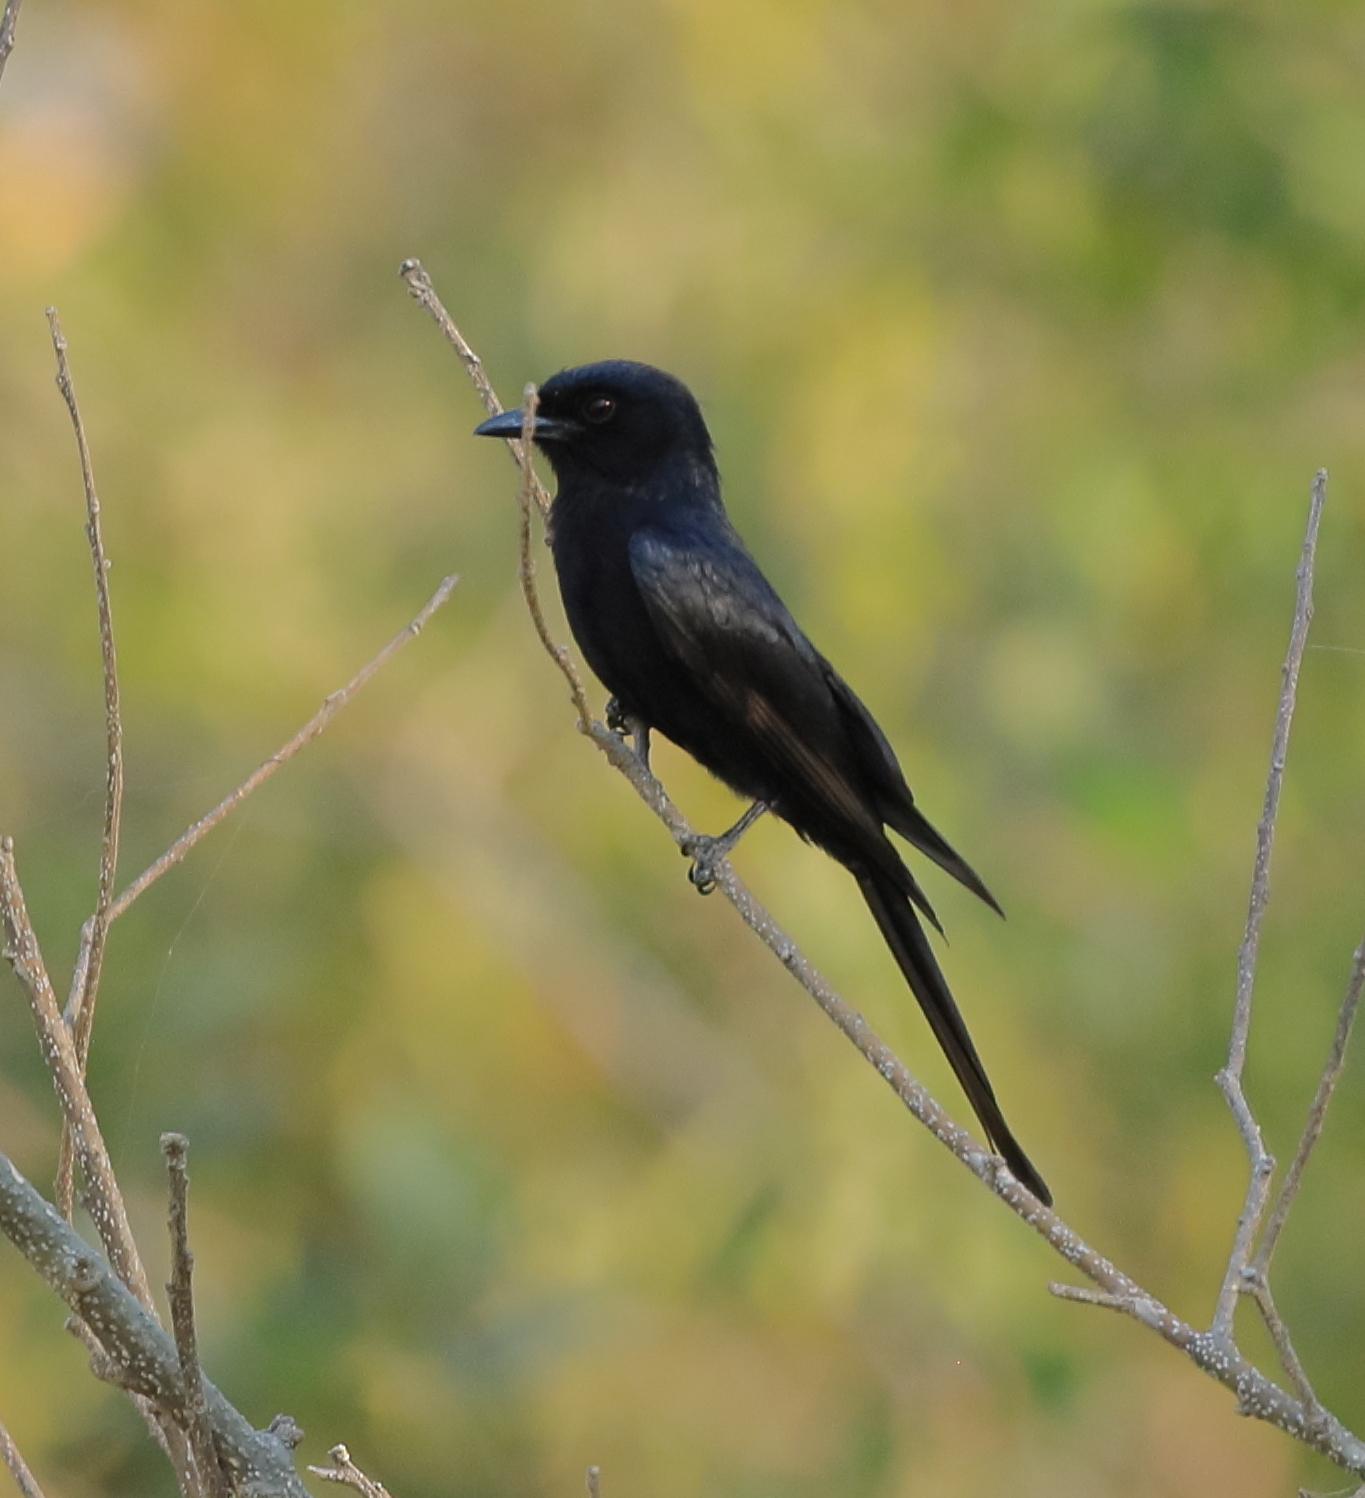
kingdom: Animalia
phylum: Chordata
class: Aves
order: Passeriformes
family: Dicruridae
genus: Dicrurus
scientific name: Dicrurus adsimilis
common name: Fork-tailed drongo
